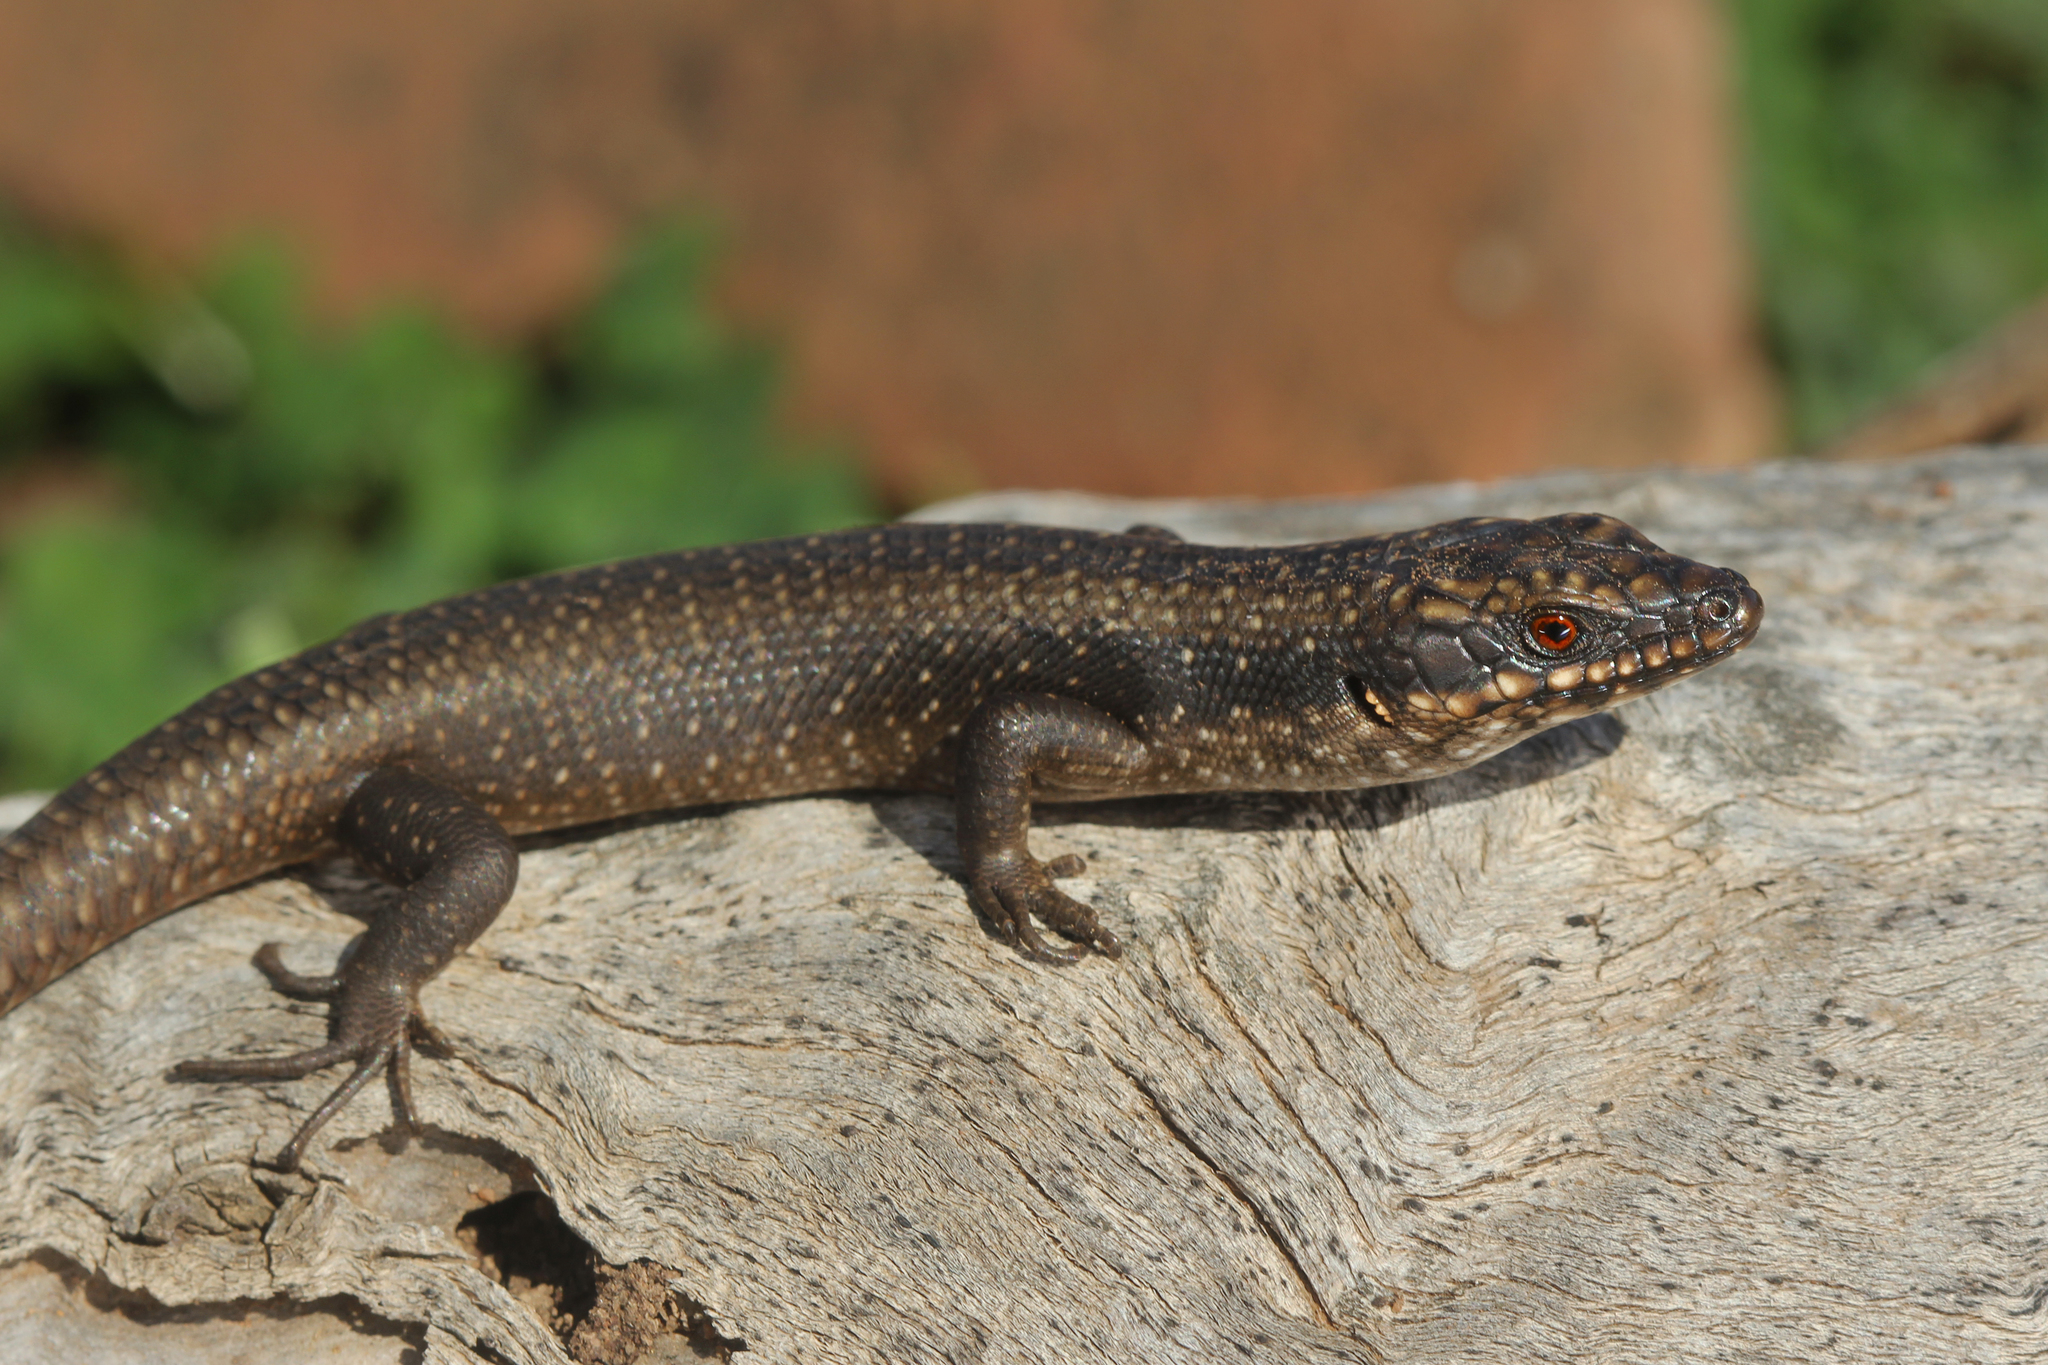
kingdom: Animalia
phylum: Chordata
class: Squamata
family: Scincidae
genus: Egernia
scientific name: Egernia striolata
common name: Tree skink
